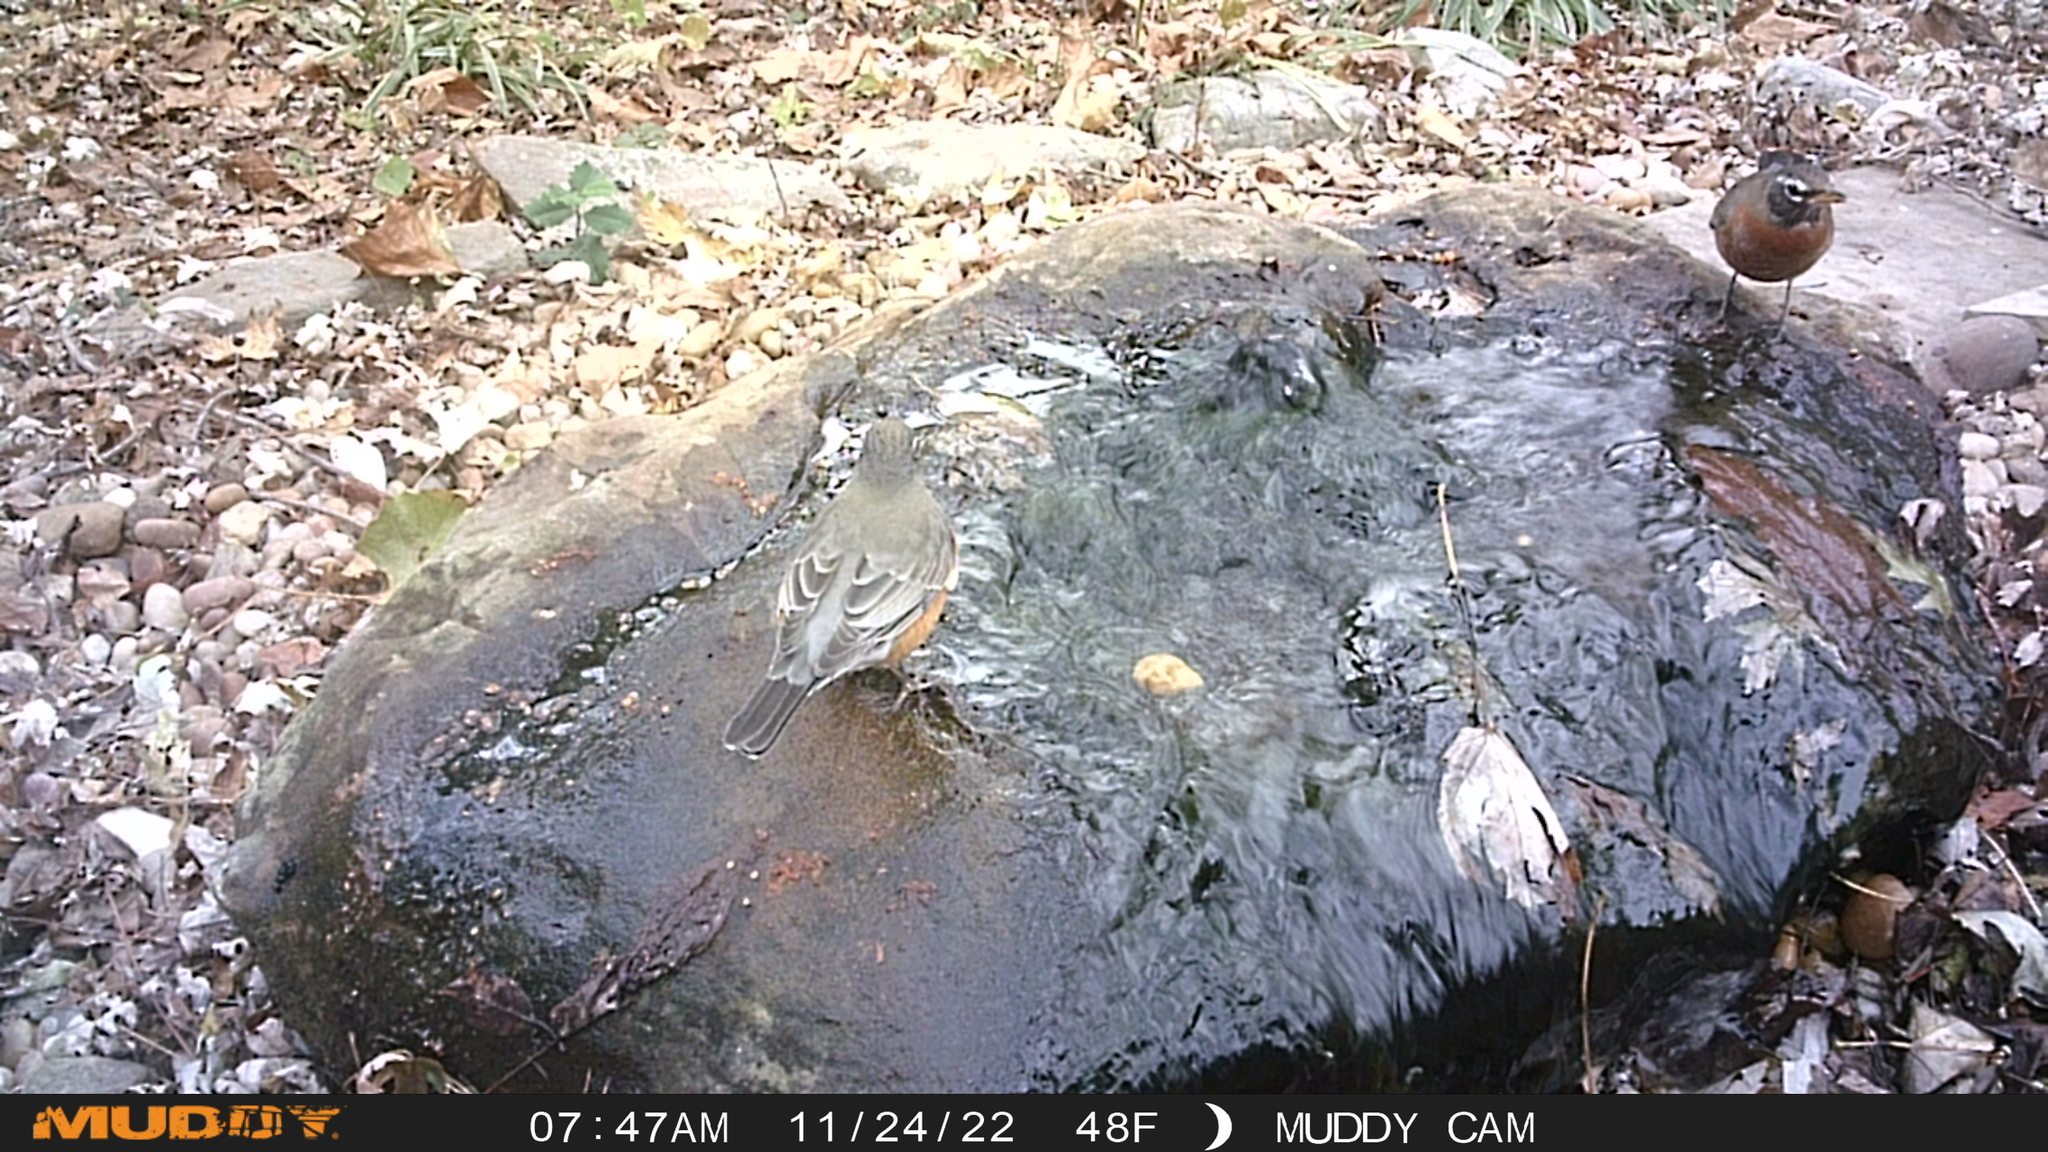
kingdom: Animalia
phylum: Chordata
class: Aves
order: Passeriformes
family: Turdidae
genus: Turdus
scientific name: Turdus migratorius
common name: American robin
